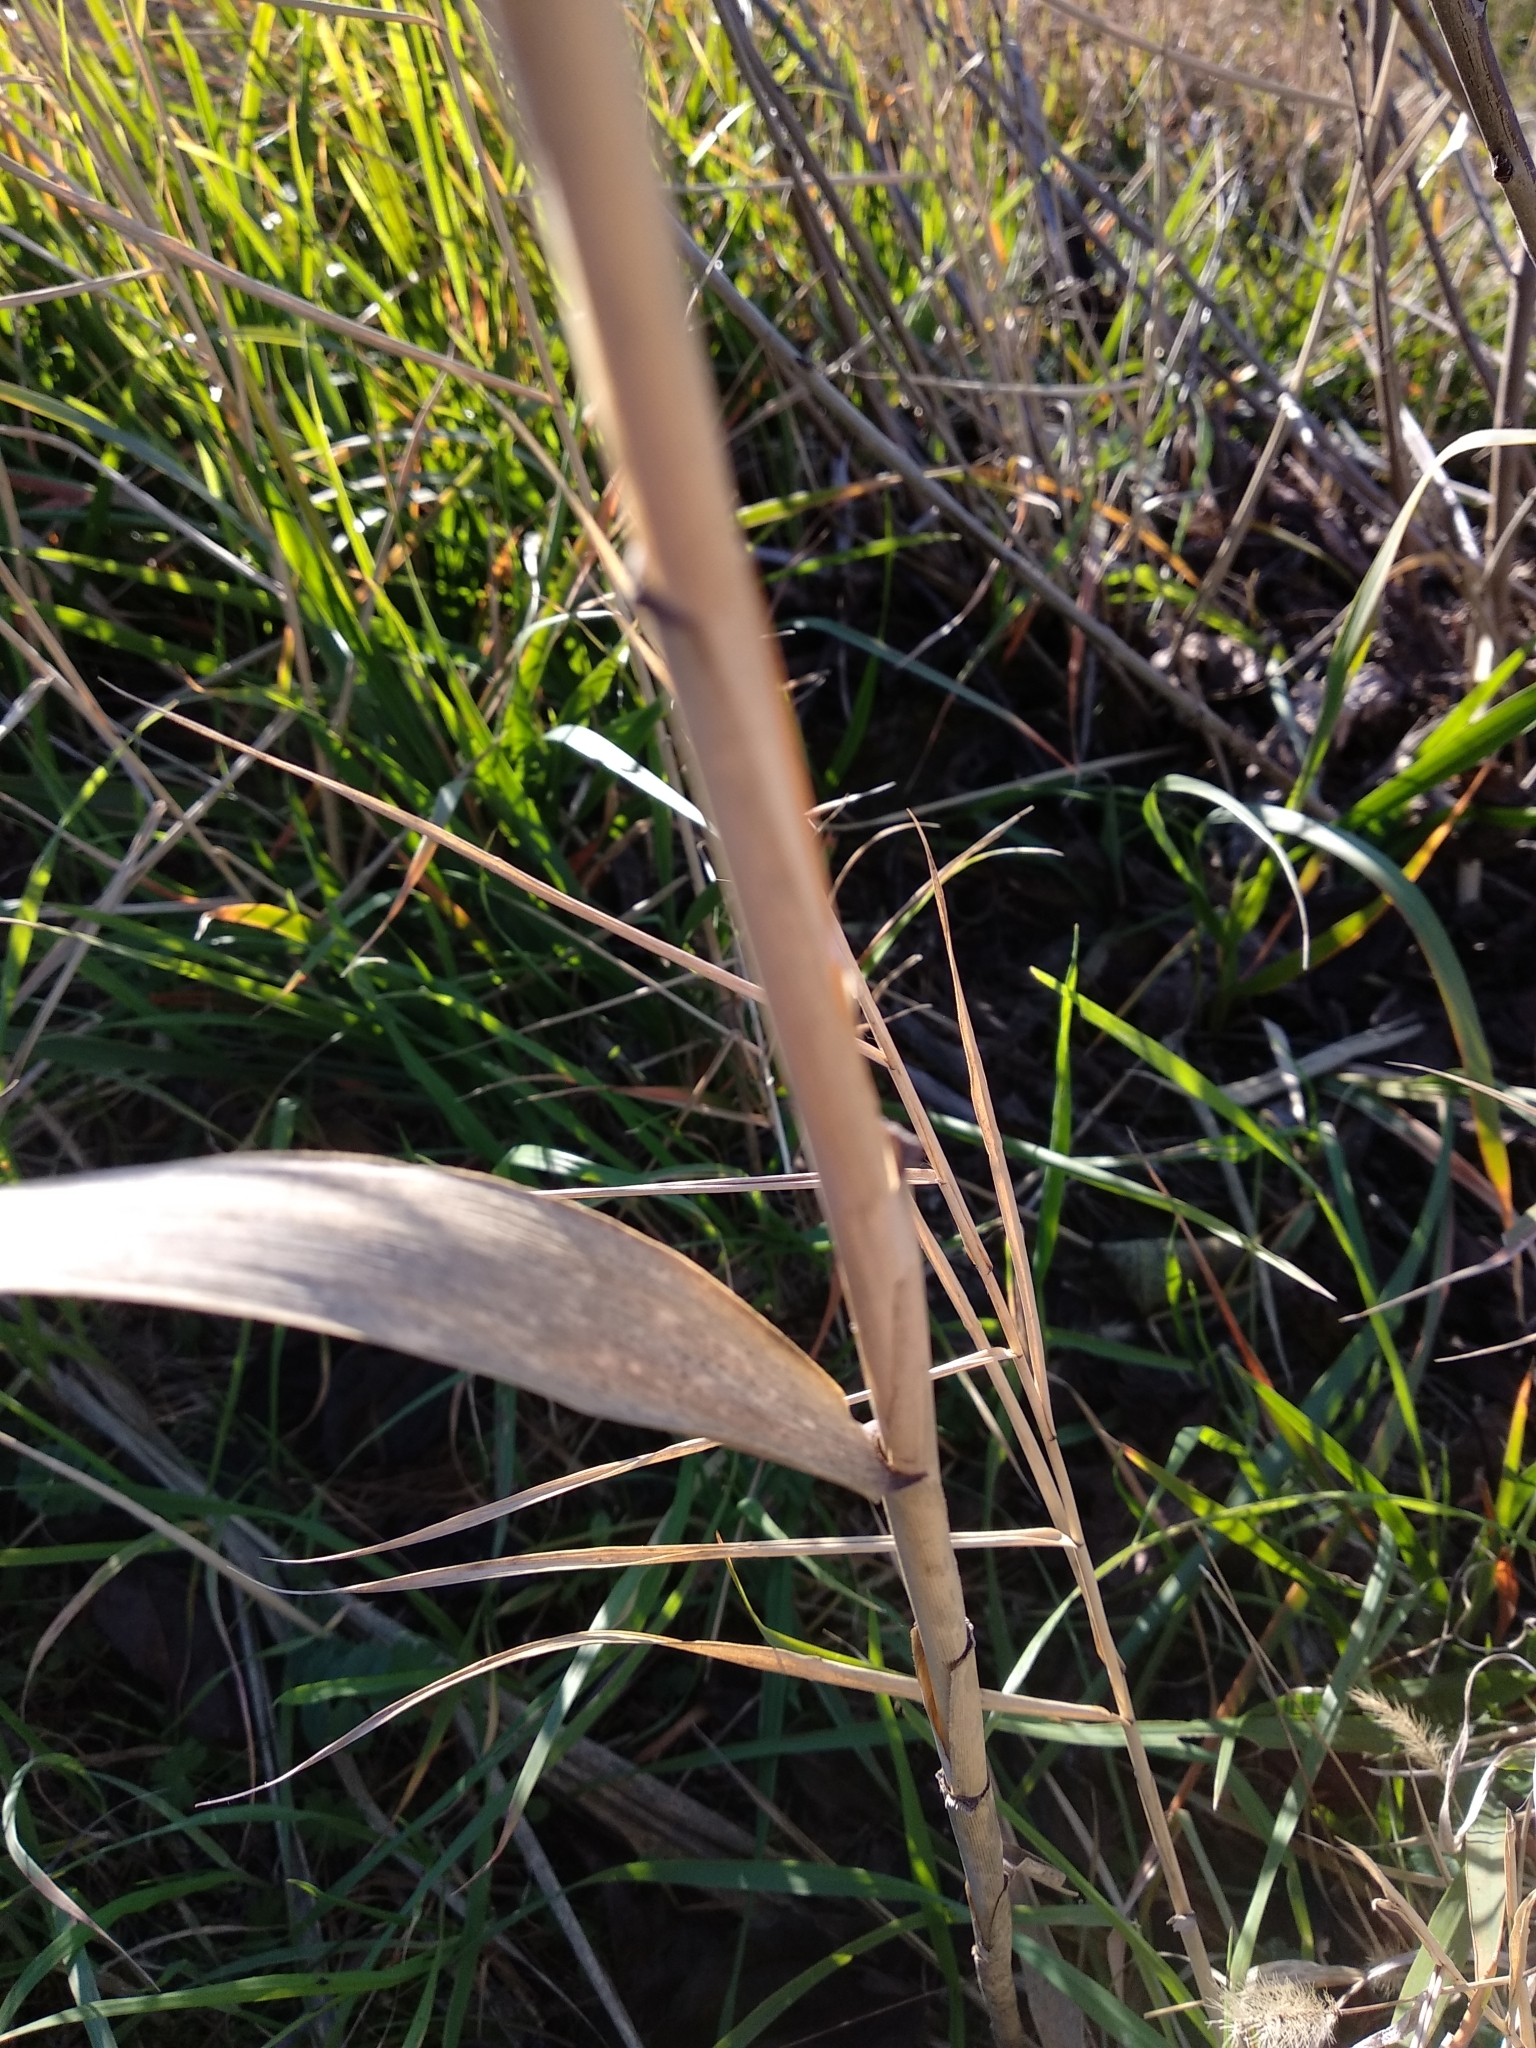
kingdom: Plantae
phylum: Tracheophyta
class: Liliopsida
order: Poales
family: Poaceae
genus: Phragmites
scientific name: Phragmites australis
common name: Common reed
